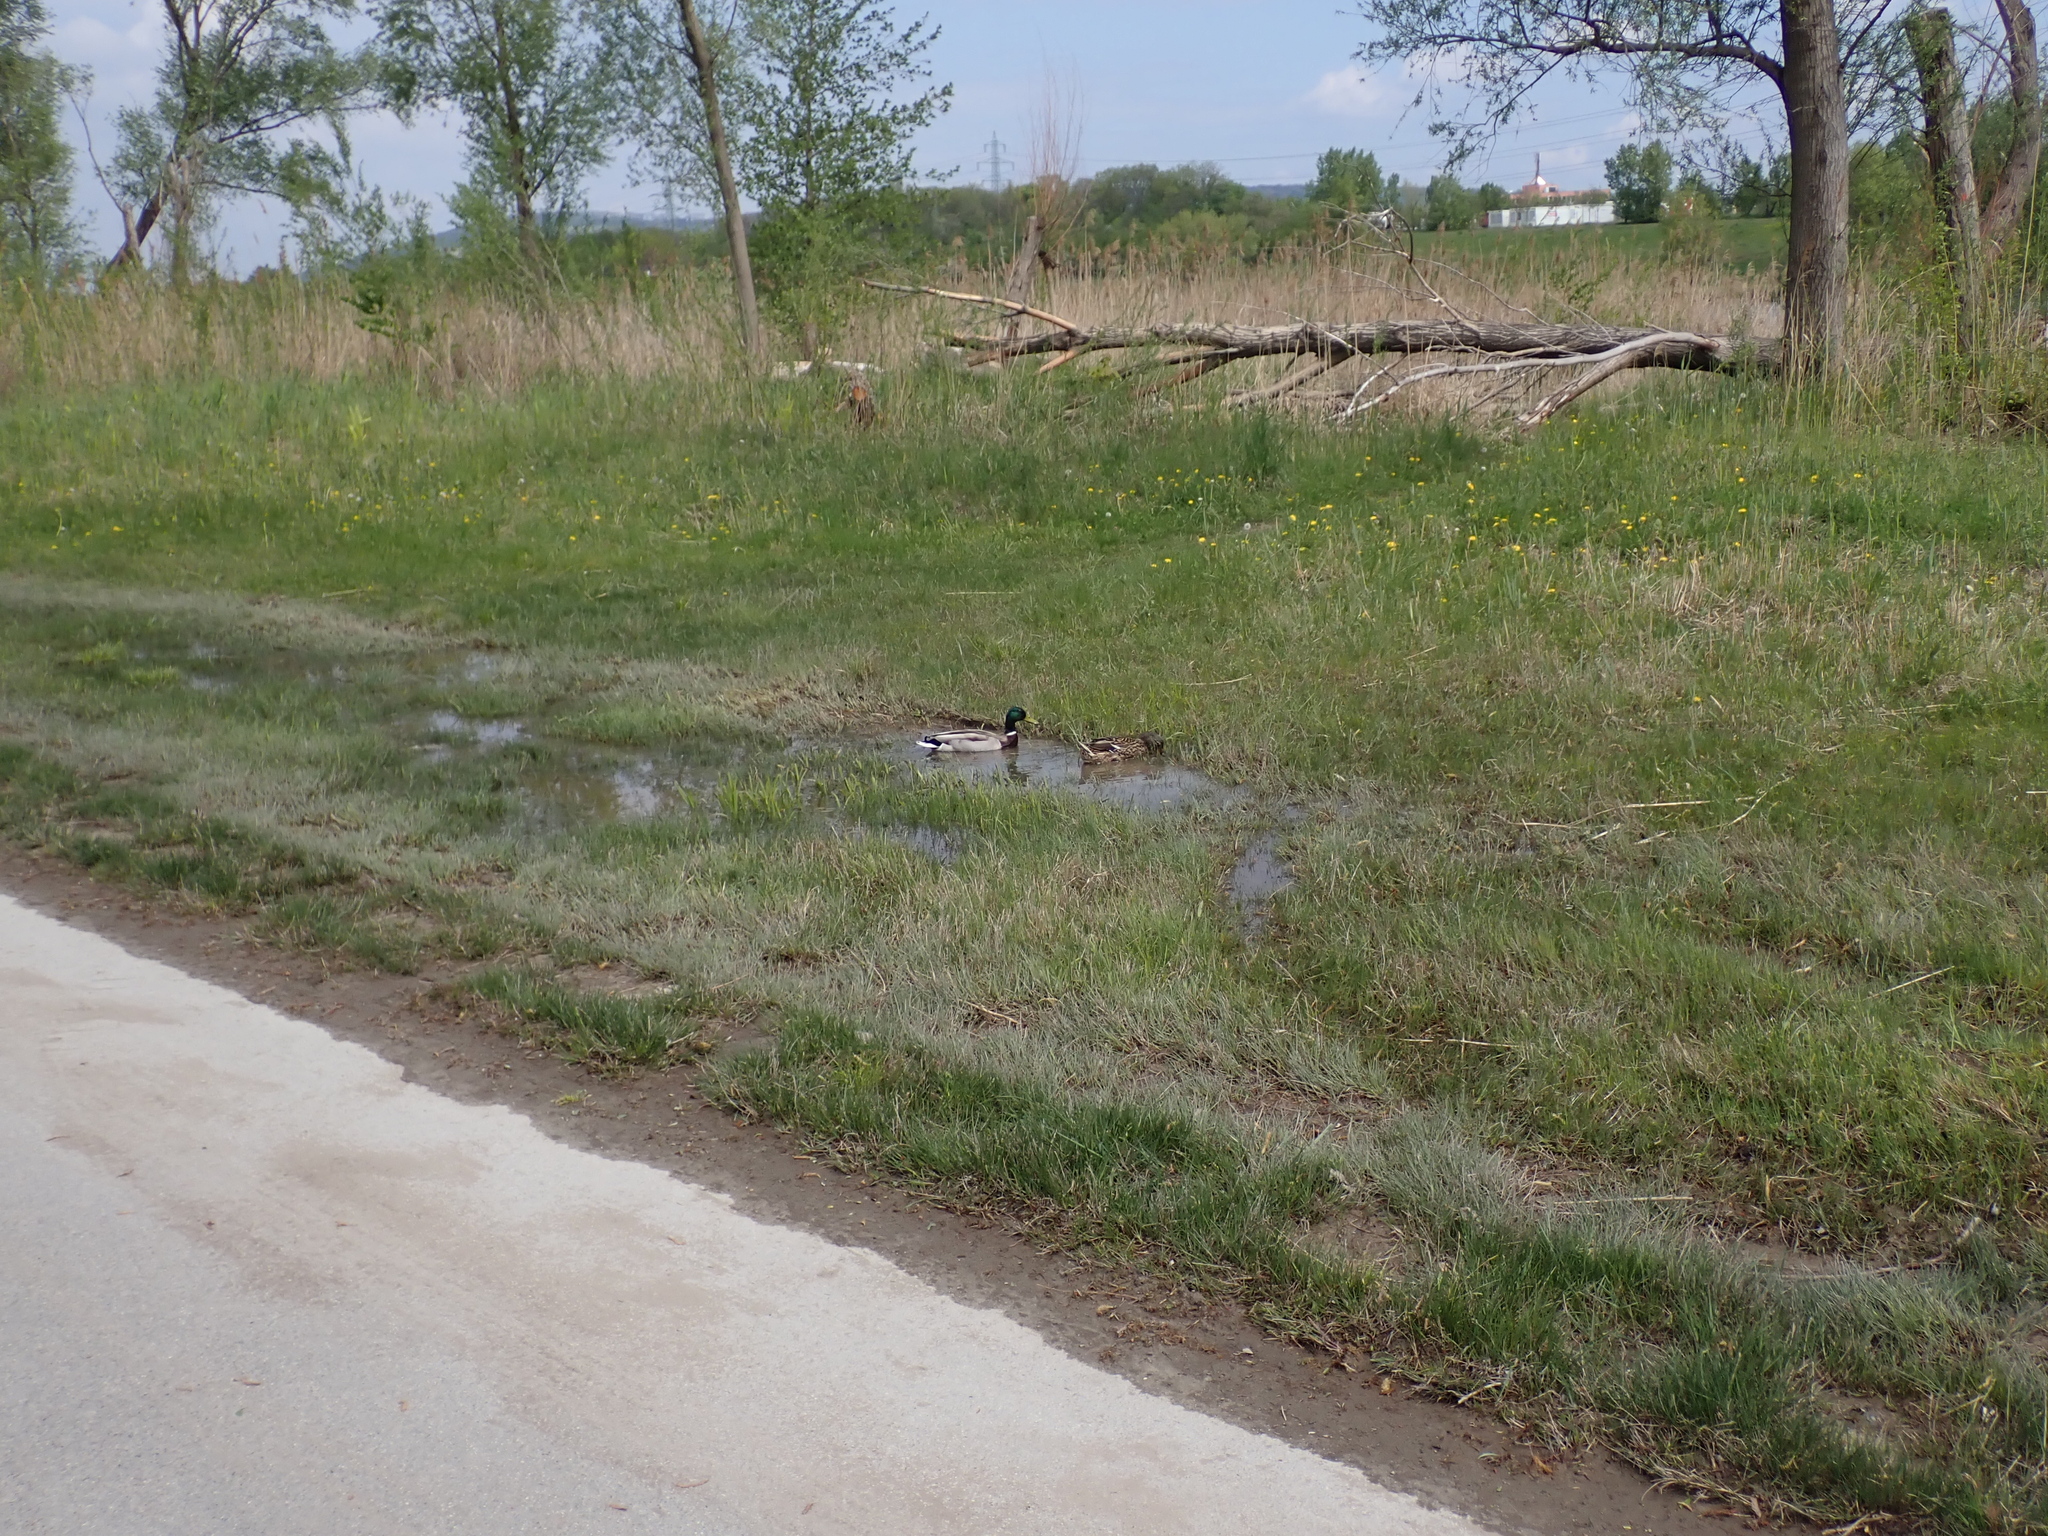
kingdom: Animalia
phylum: Chordata
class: Aves
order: Anseriformes
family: Anatidae
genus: Anas
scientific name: Anas platyrhynchos
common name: Mallard
